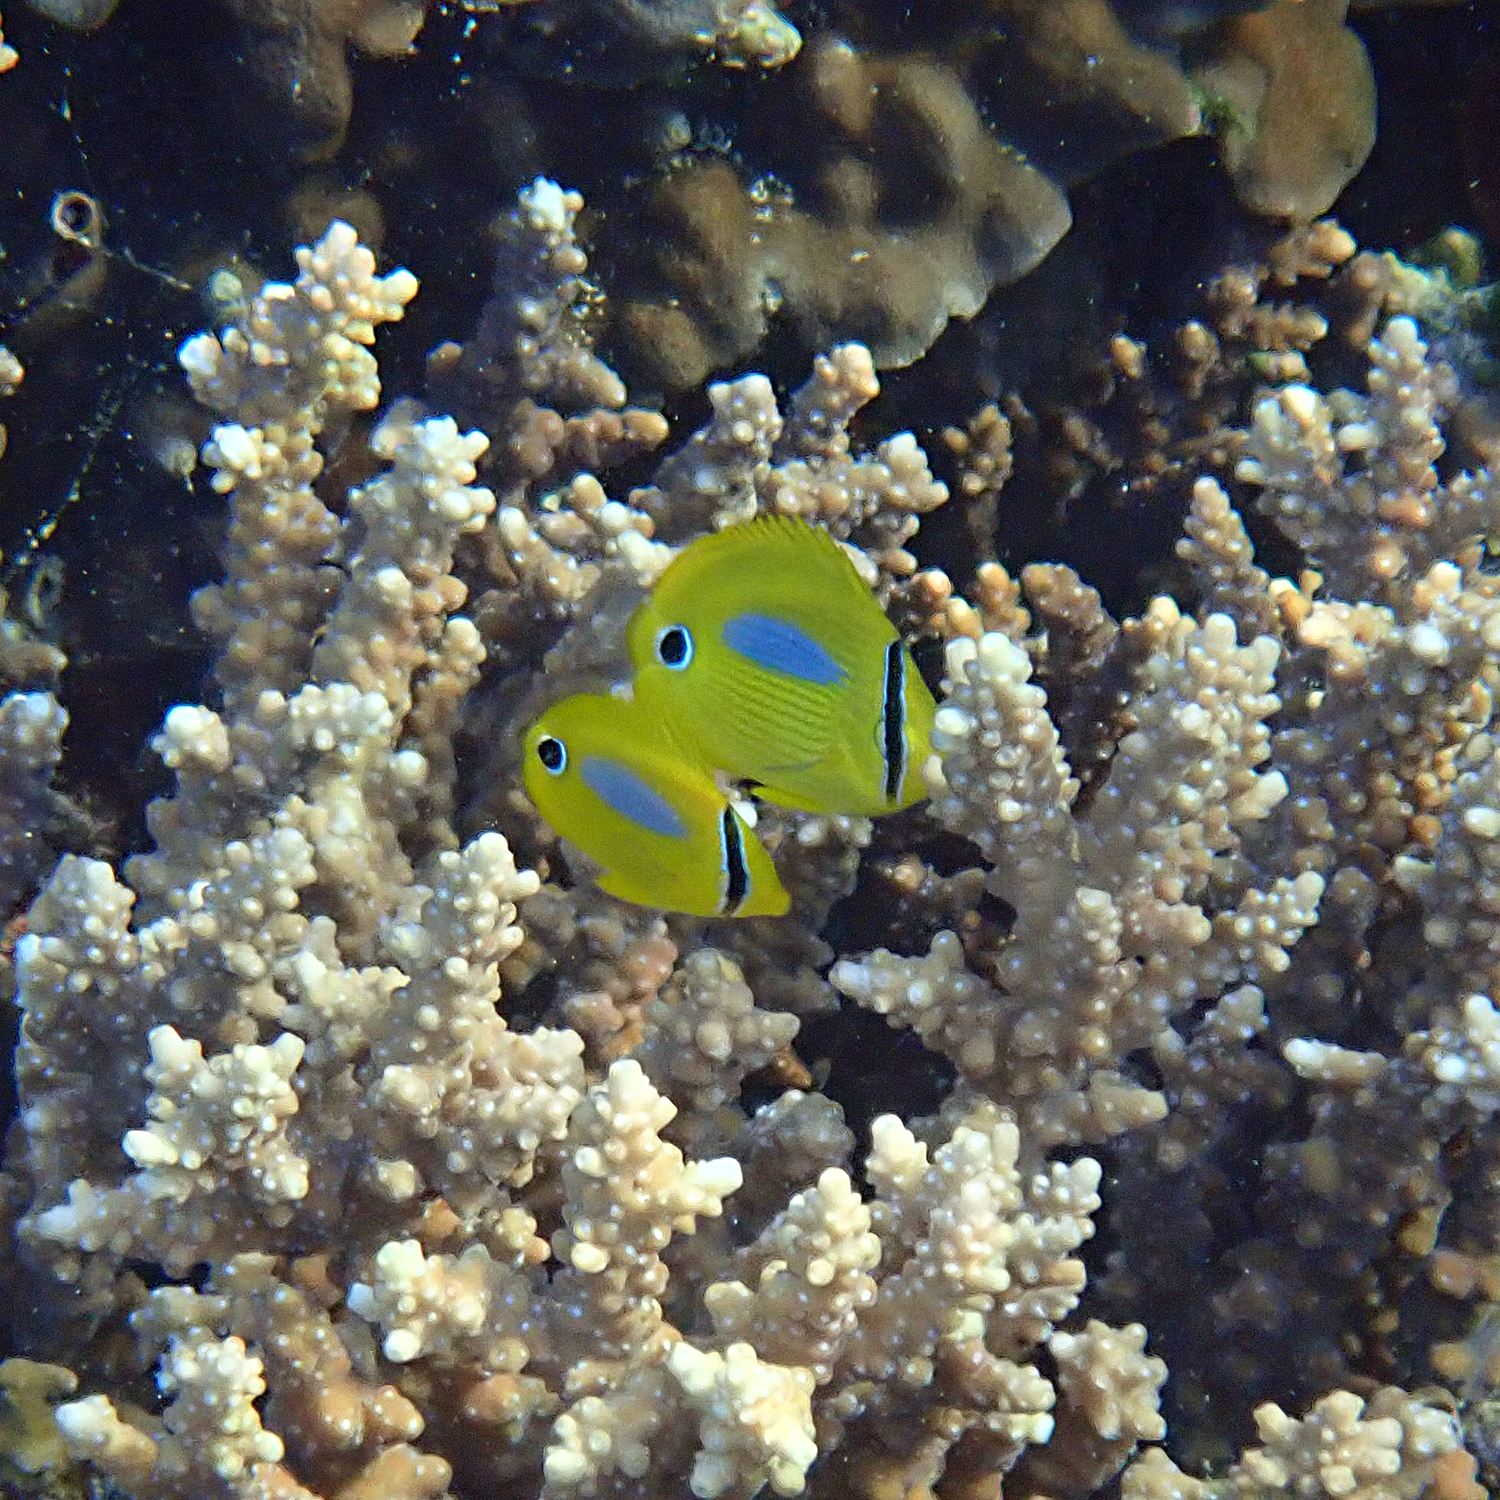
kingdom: Animalia
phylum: Chordata
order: Perciformes
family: Chaetodontidae
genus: Chaetodon
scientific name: Chaetodon plebeius
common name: Bluespot butterflyfish
